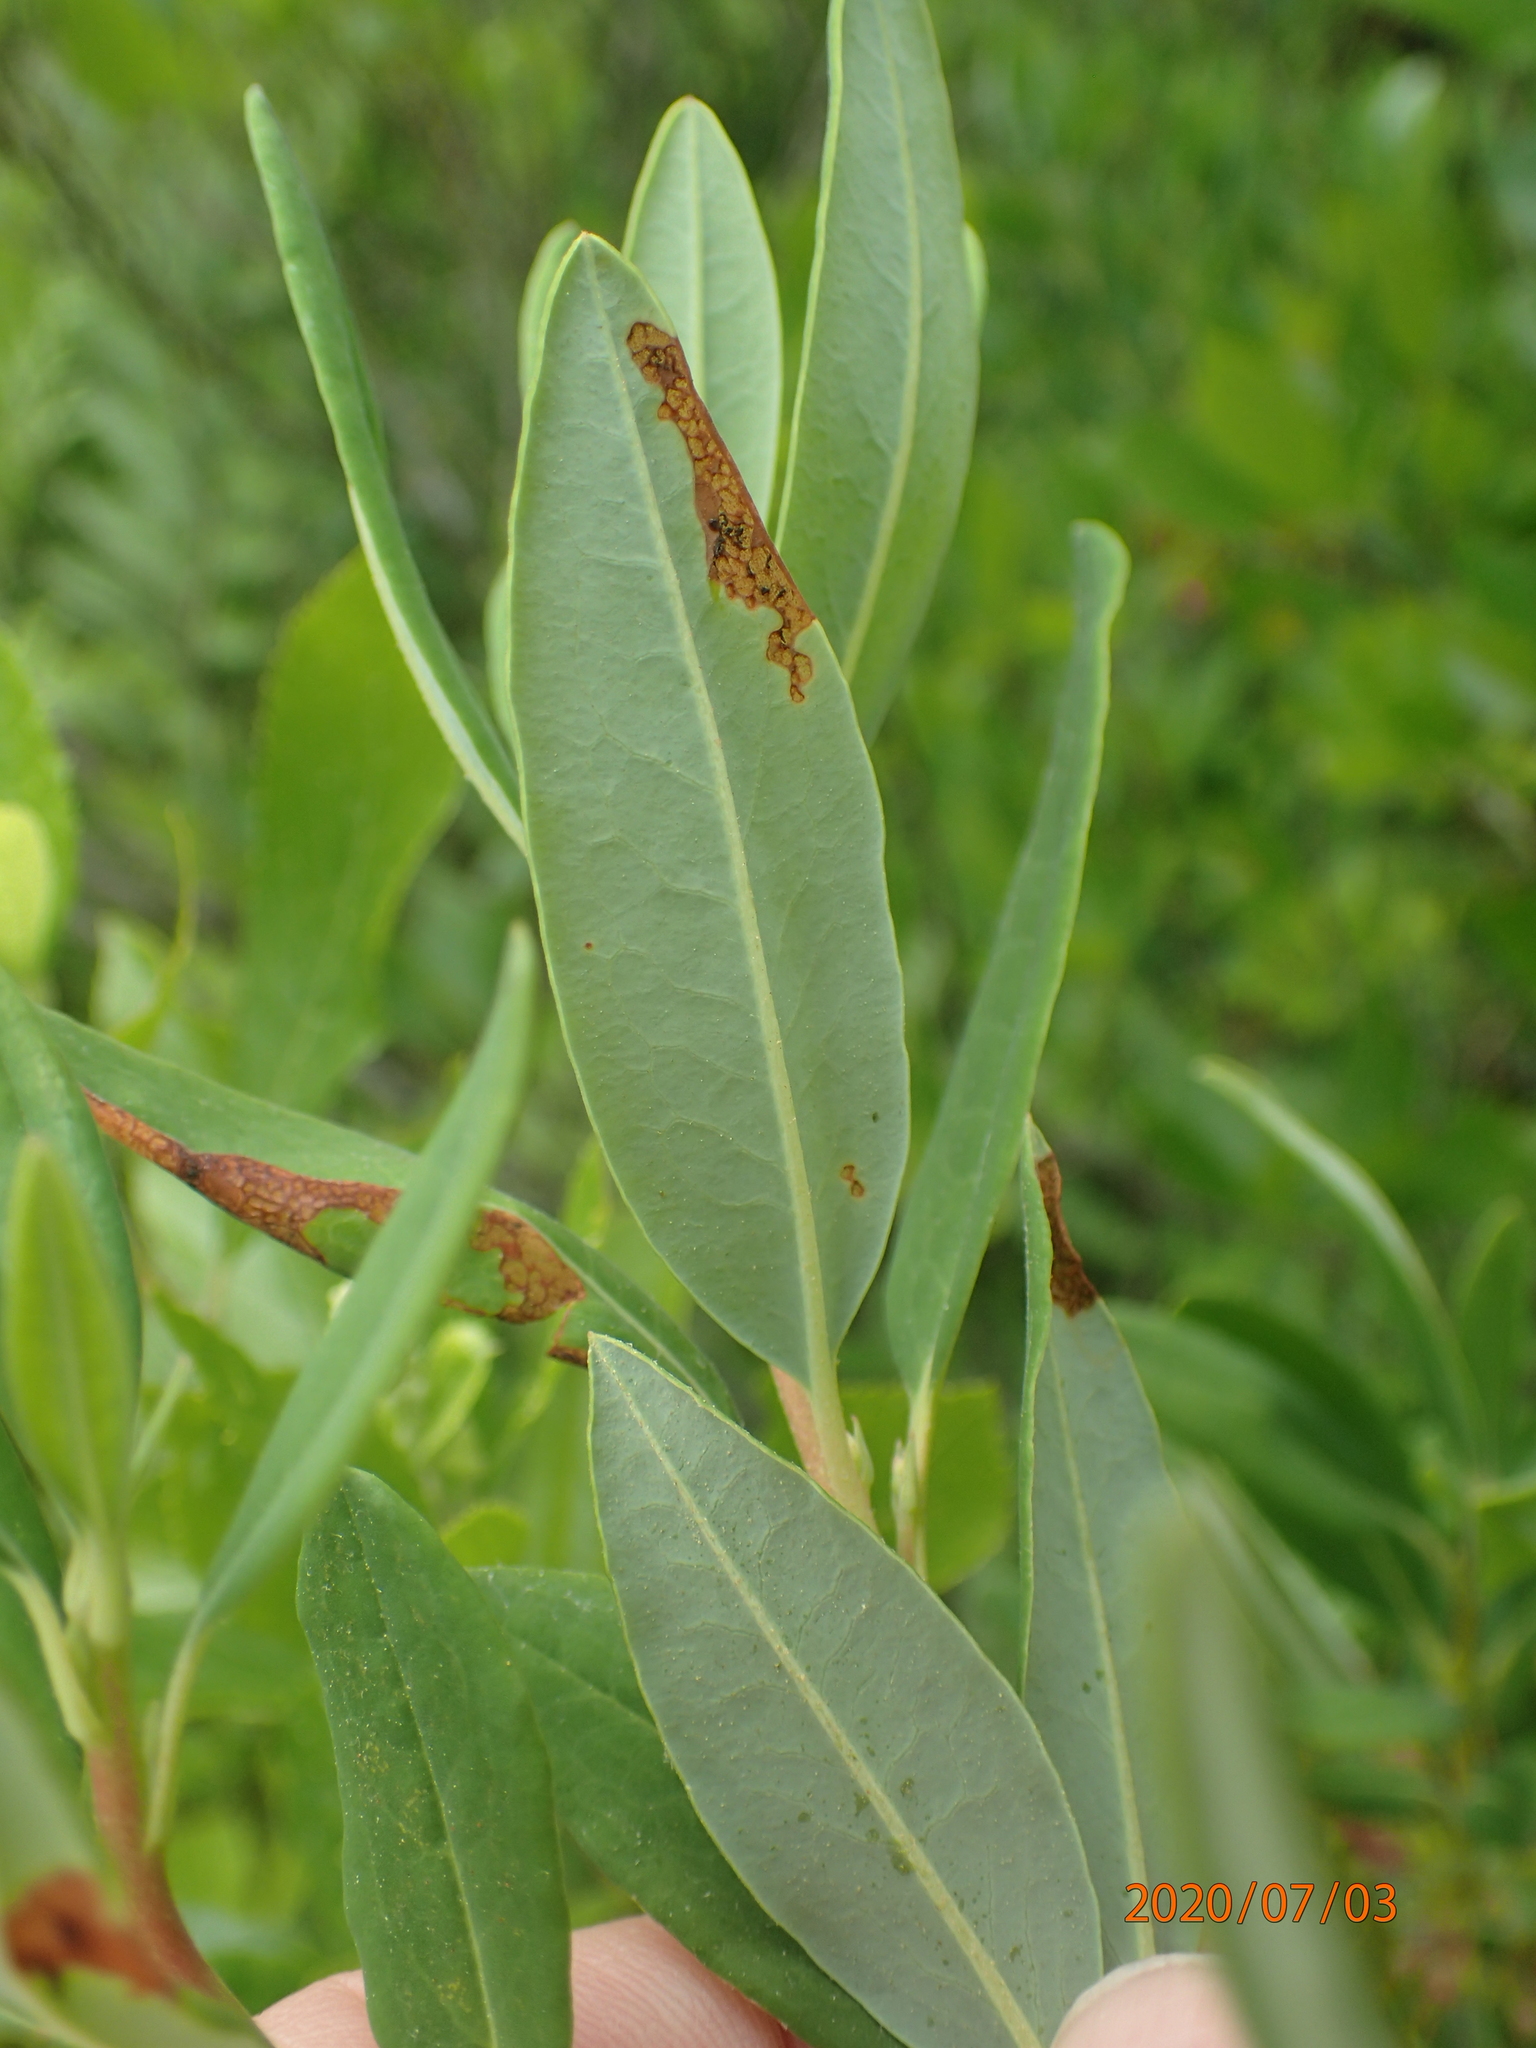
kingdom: Plantae
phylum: Tracheophyta
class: Magnoliopsida
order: Ericales
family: Ericaceae
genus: Kalmia
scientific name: Kalmia angustifolia
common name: Sheep-laurel
